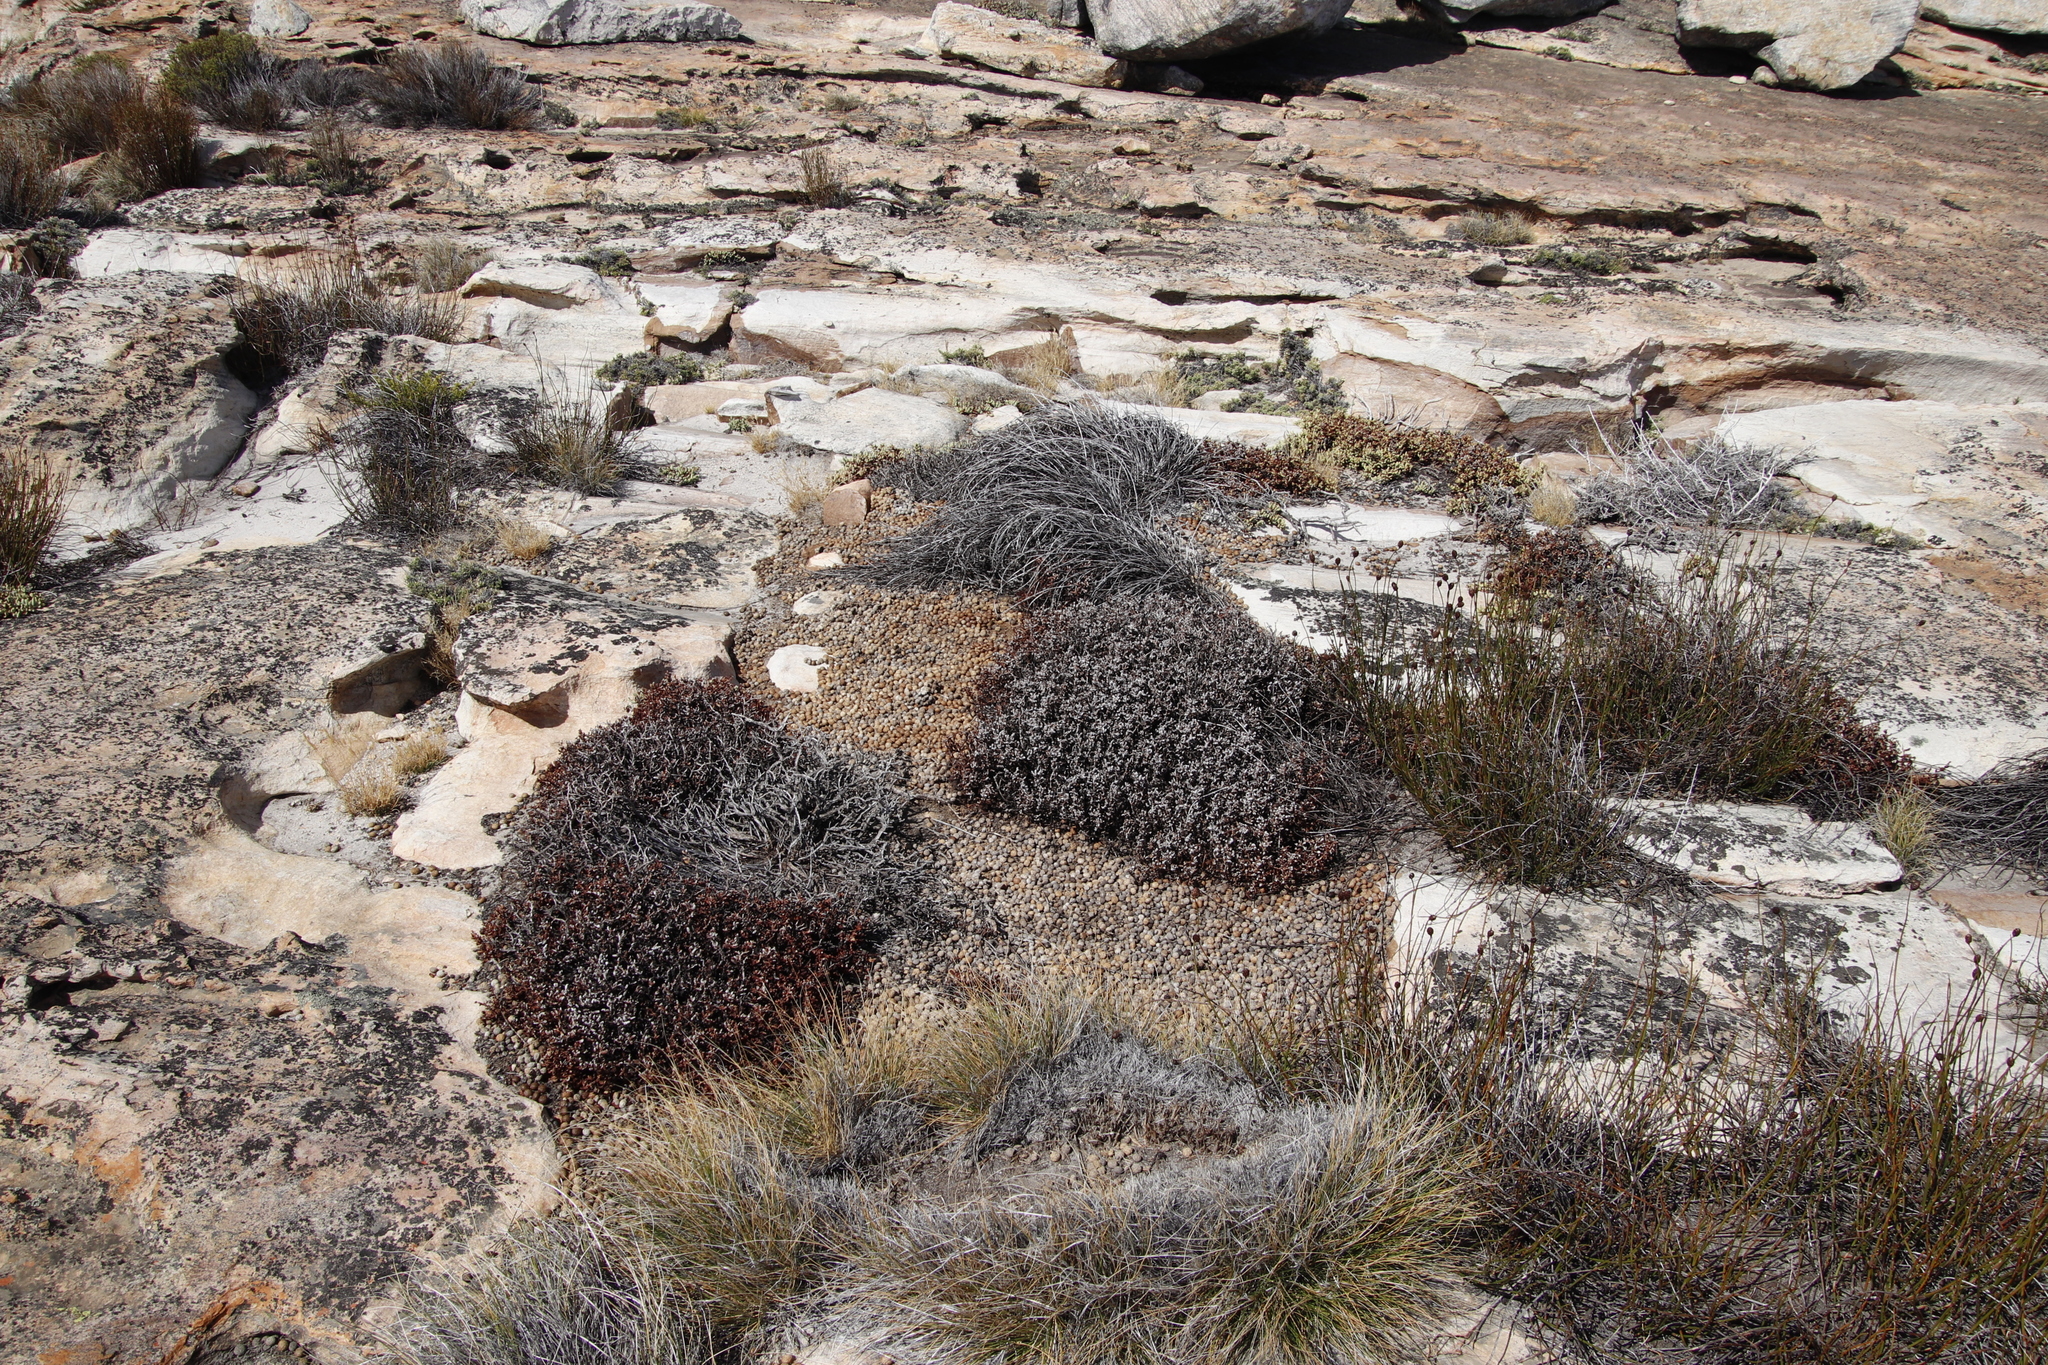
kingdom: Animalia
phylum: Chordata
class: Mammalia
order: Lagomorpha
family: Leporidae
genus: Pronolagus
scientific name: Pronolagus saundersiae
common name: Hewitt's red rock hare
